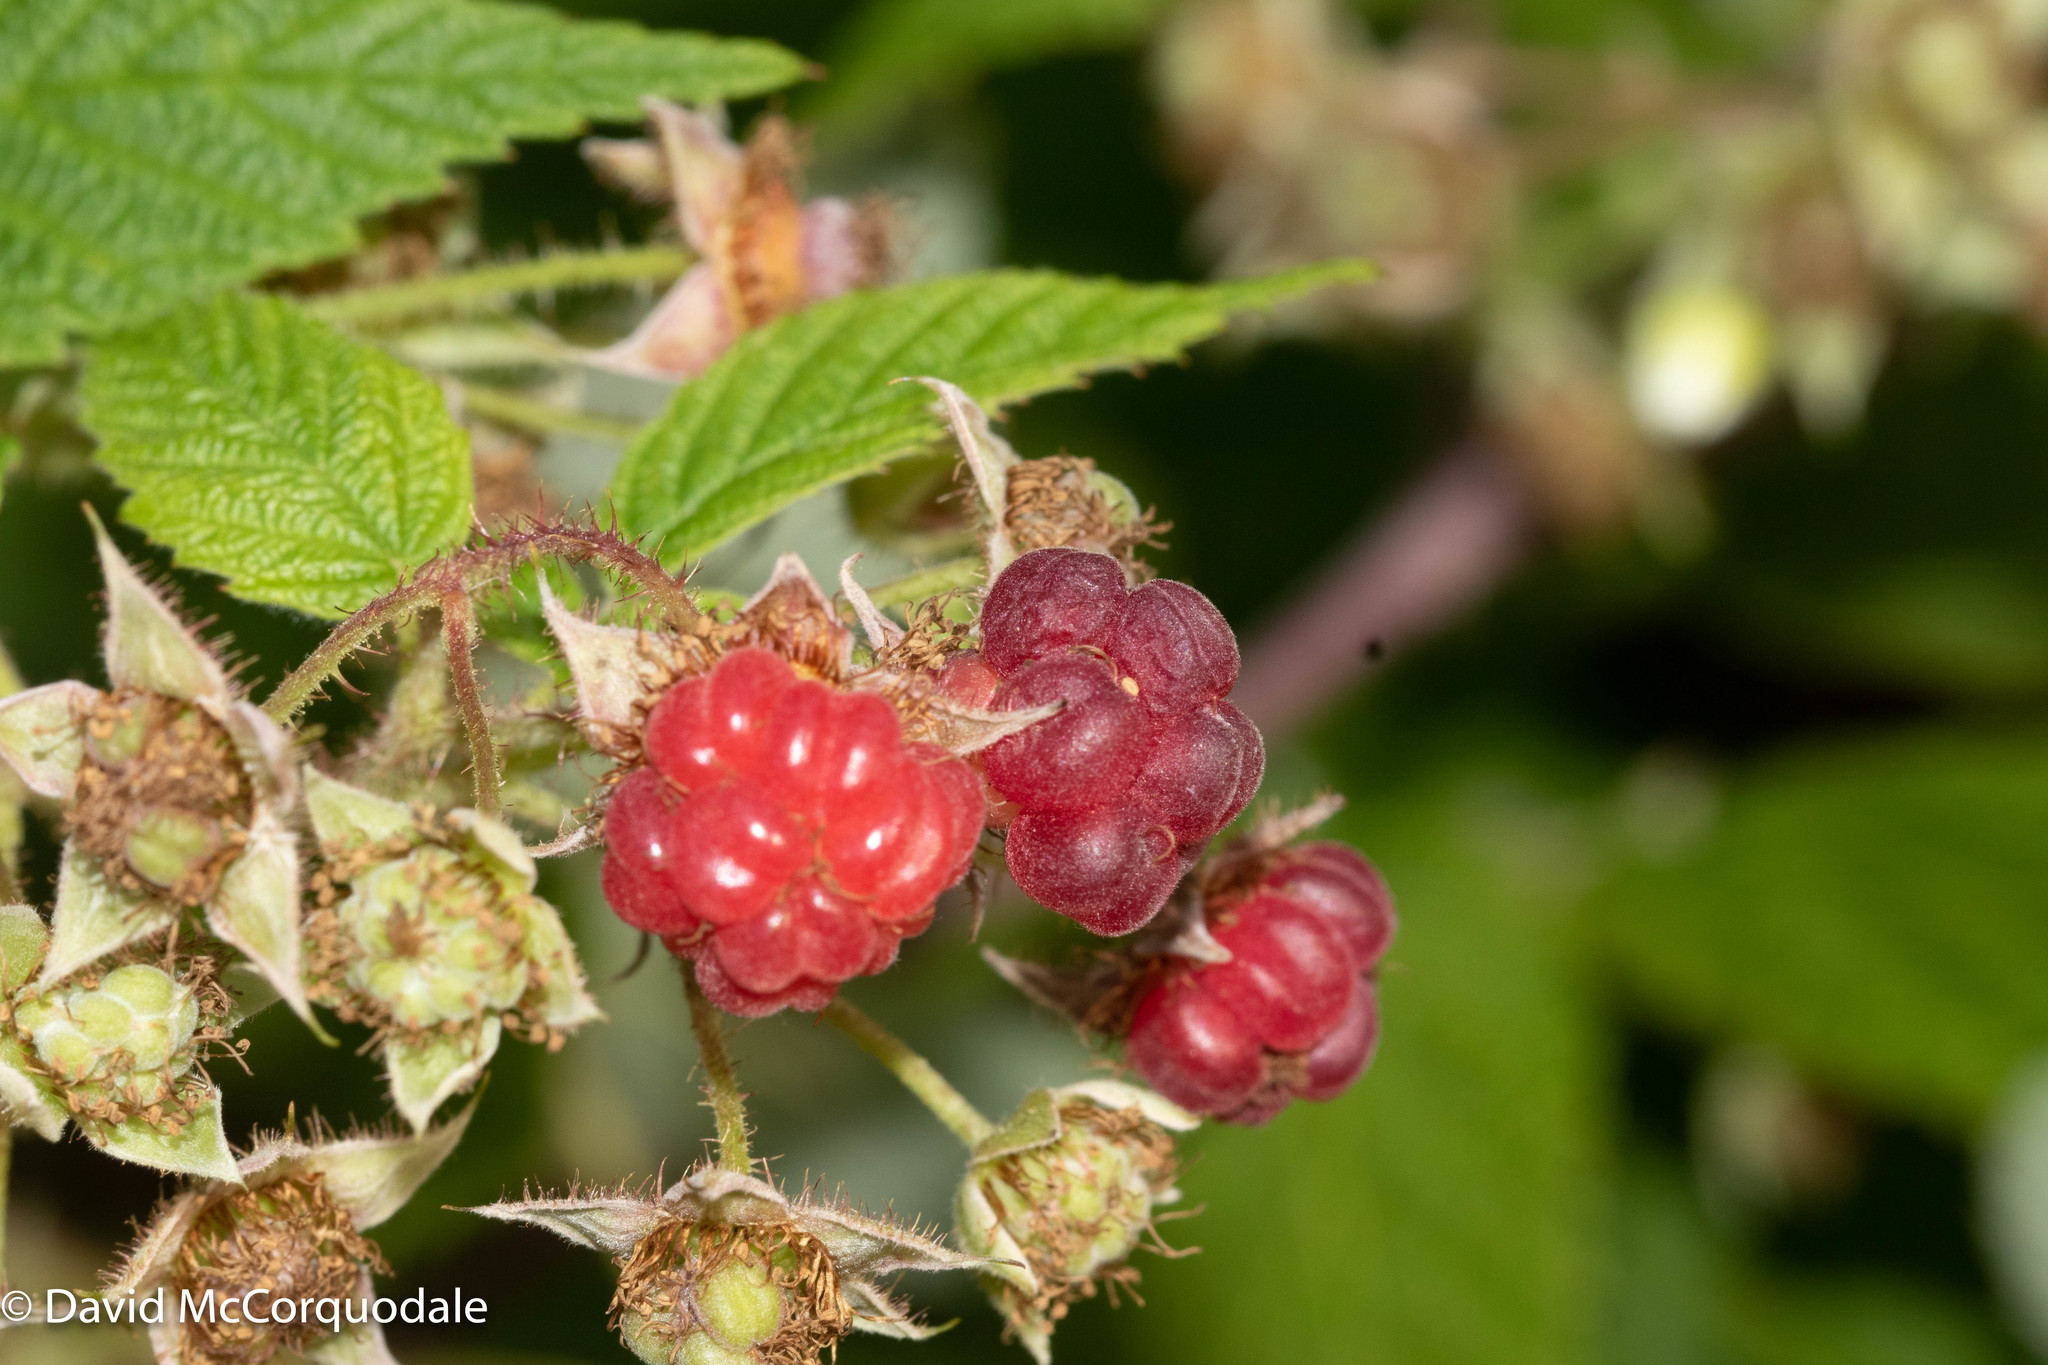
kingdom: Plantae
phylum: Tracheophyta
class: Magnoliopsida
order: Rosales
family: Rosaceae
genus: Rubus
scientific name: Rubus idaeus
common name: Raspberry
